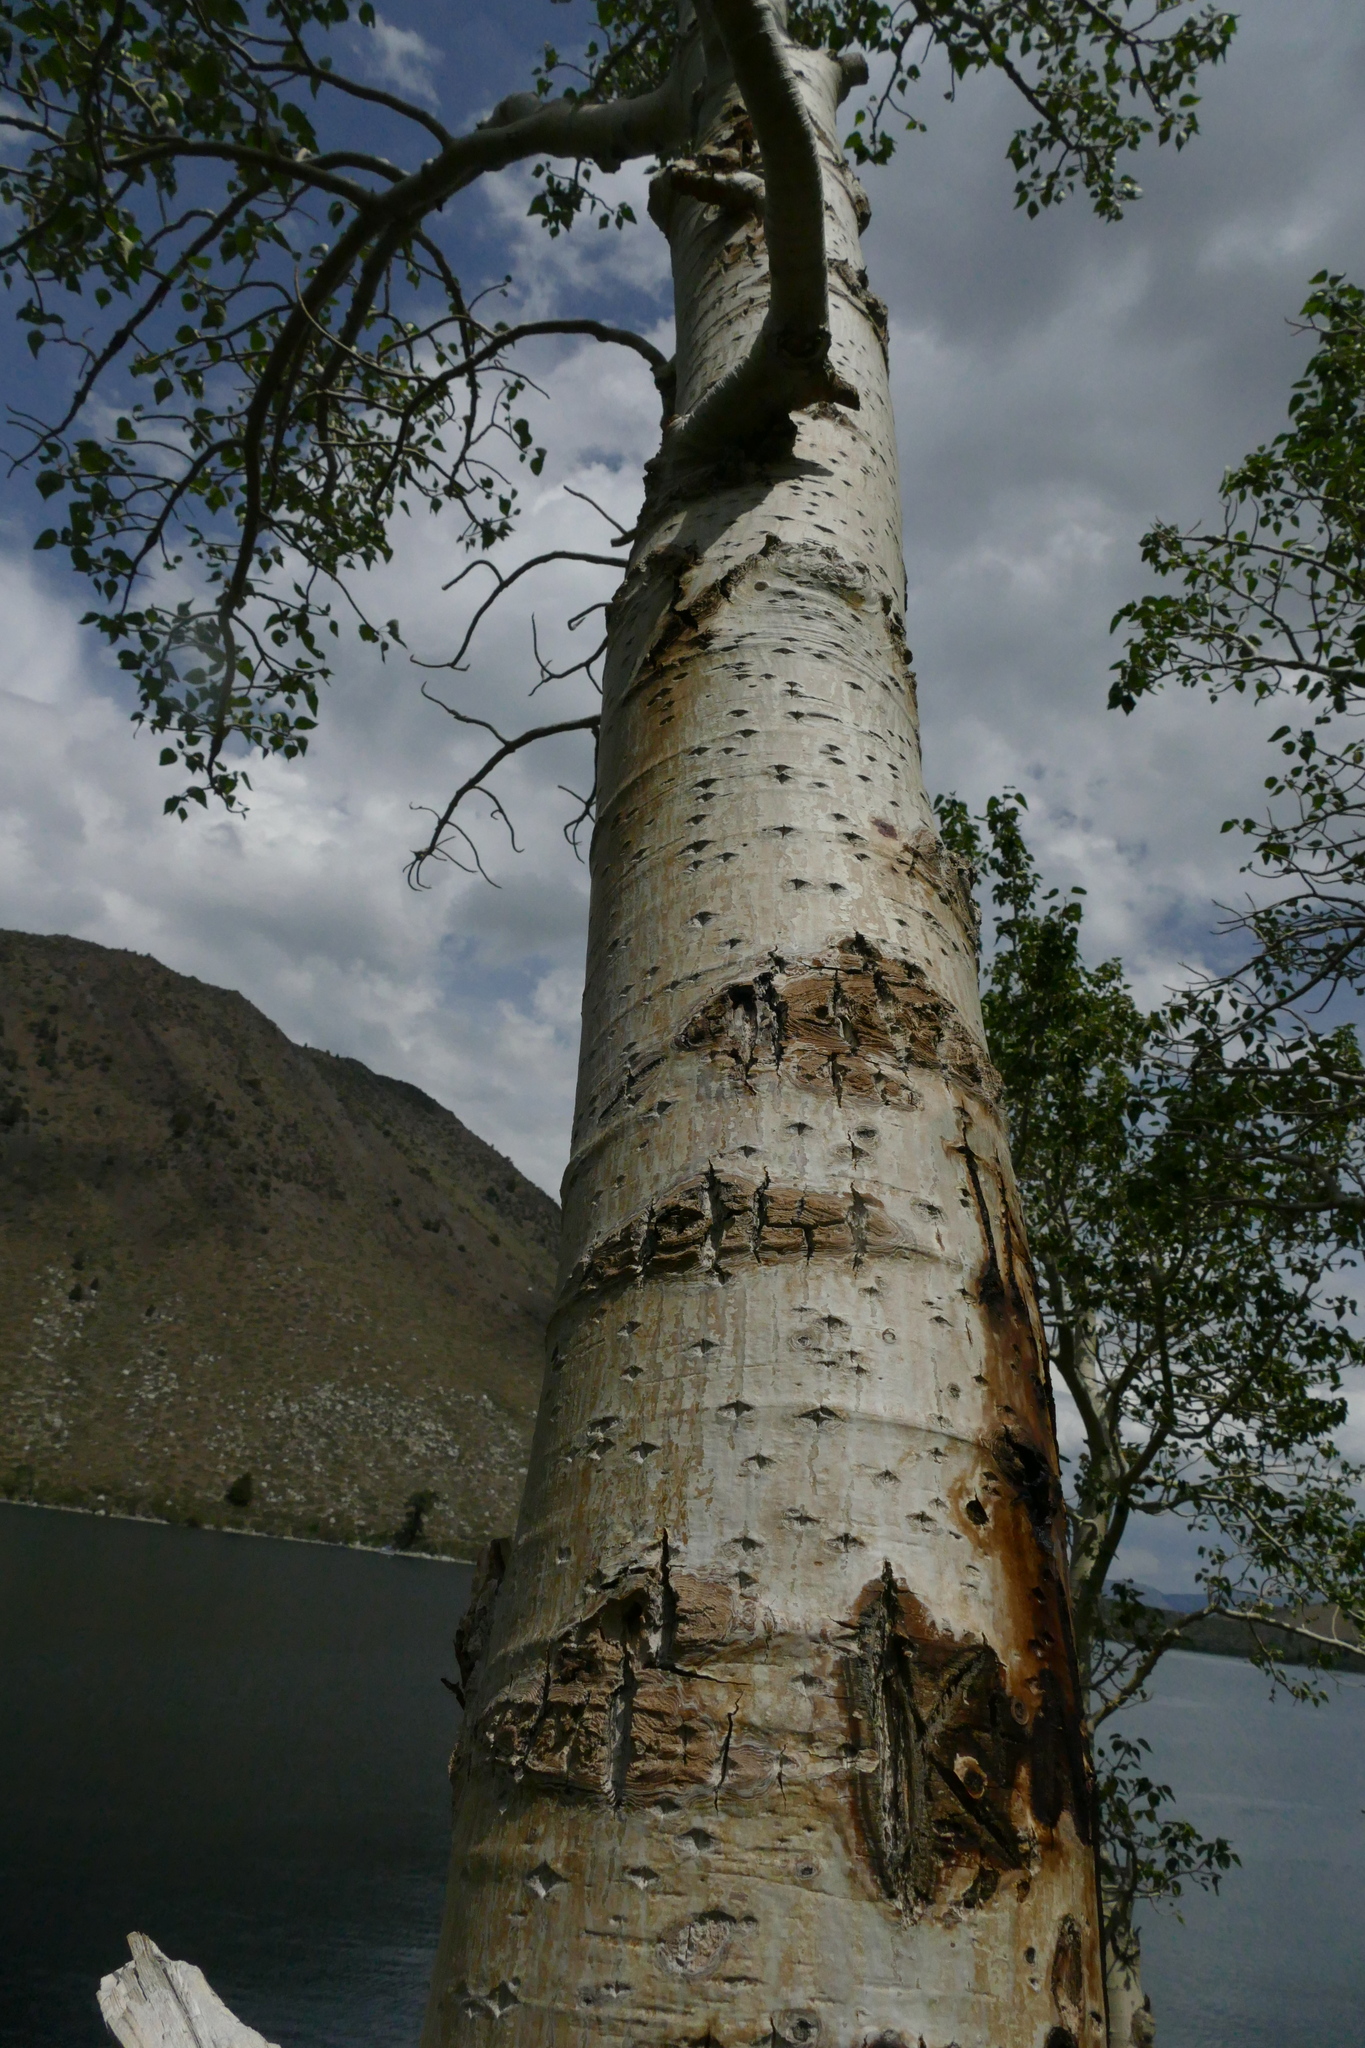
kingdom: Plantae
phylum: Tracheophyta
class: Magnoliopsida
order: Malpighiales
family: Salicaceae
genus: Populus
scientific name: Populus trichocarpa
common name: Black cottonwood
